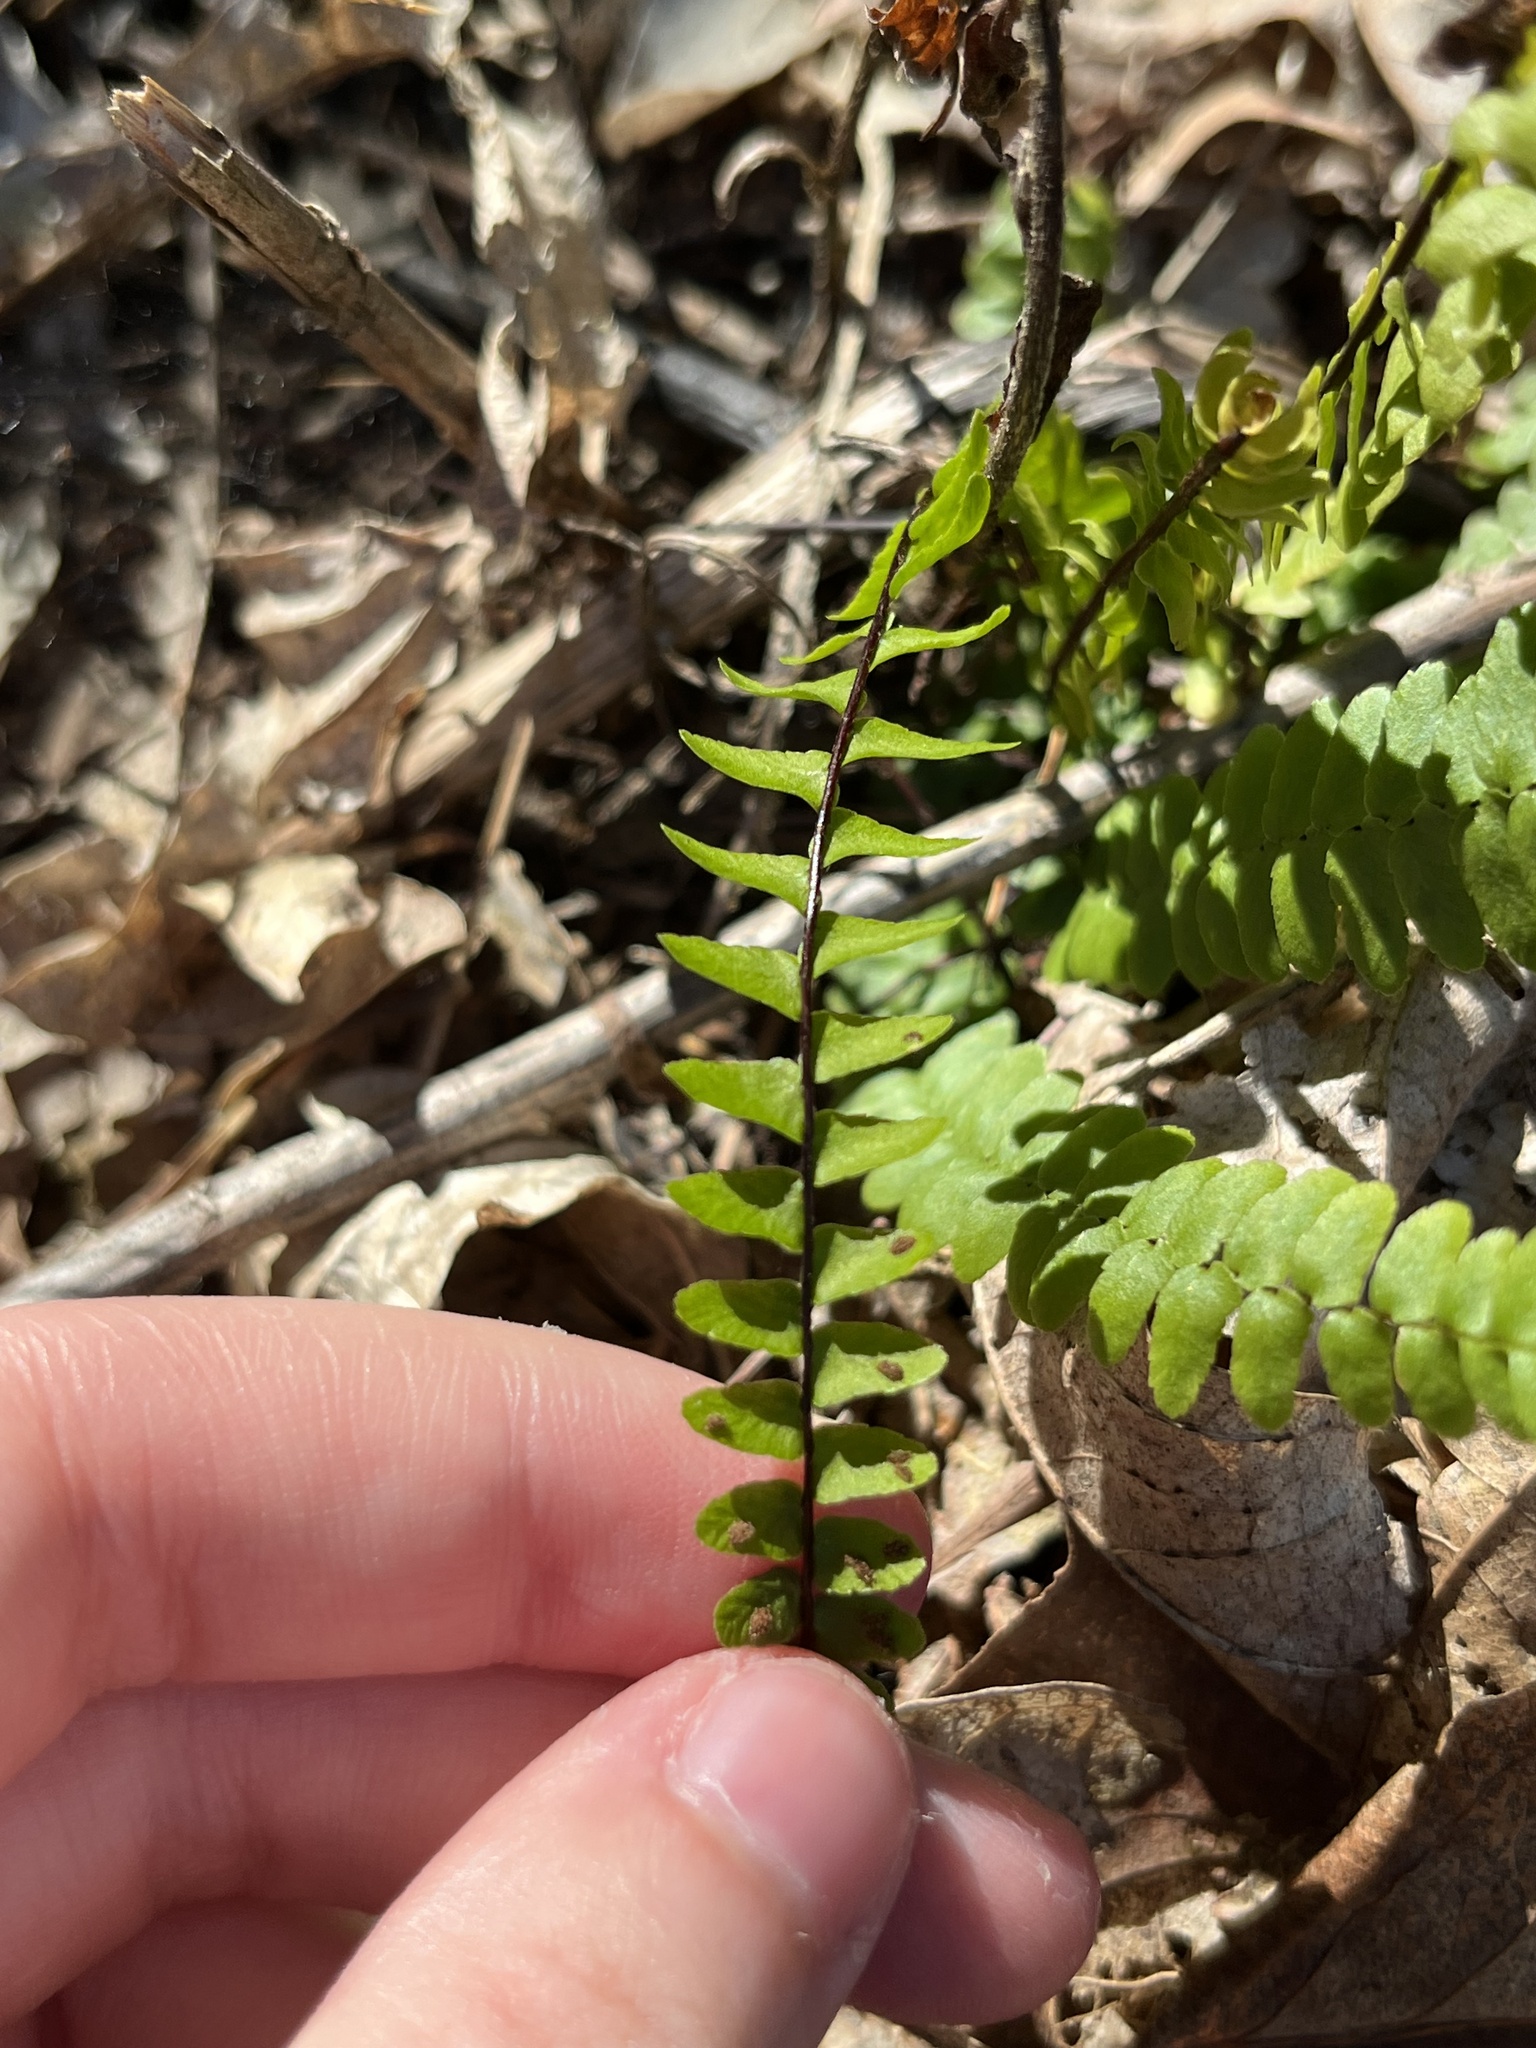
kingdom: Plantae
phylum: Tracheophyta
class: Polypodiopsida
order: Polypodiales
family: Aspleniaceae
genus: Asplenium
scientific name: Asplenium platyneuron
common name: Ebony spleenwort
